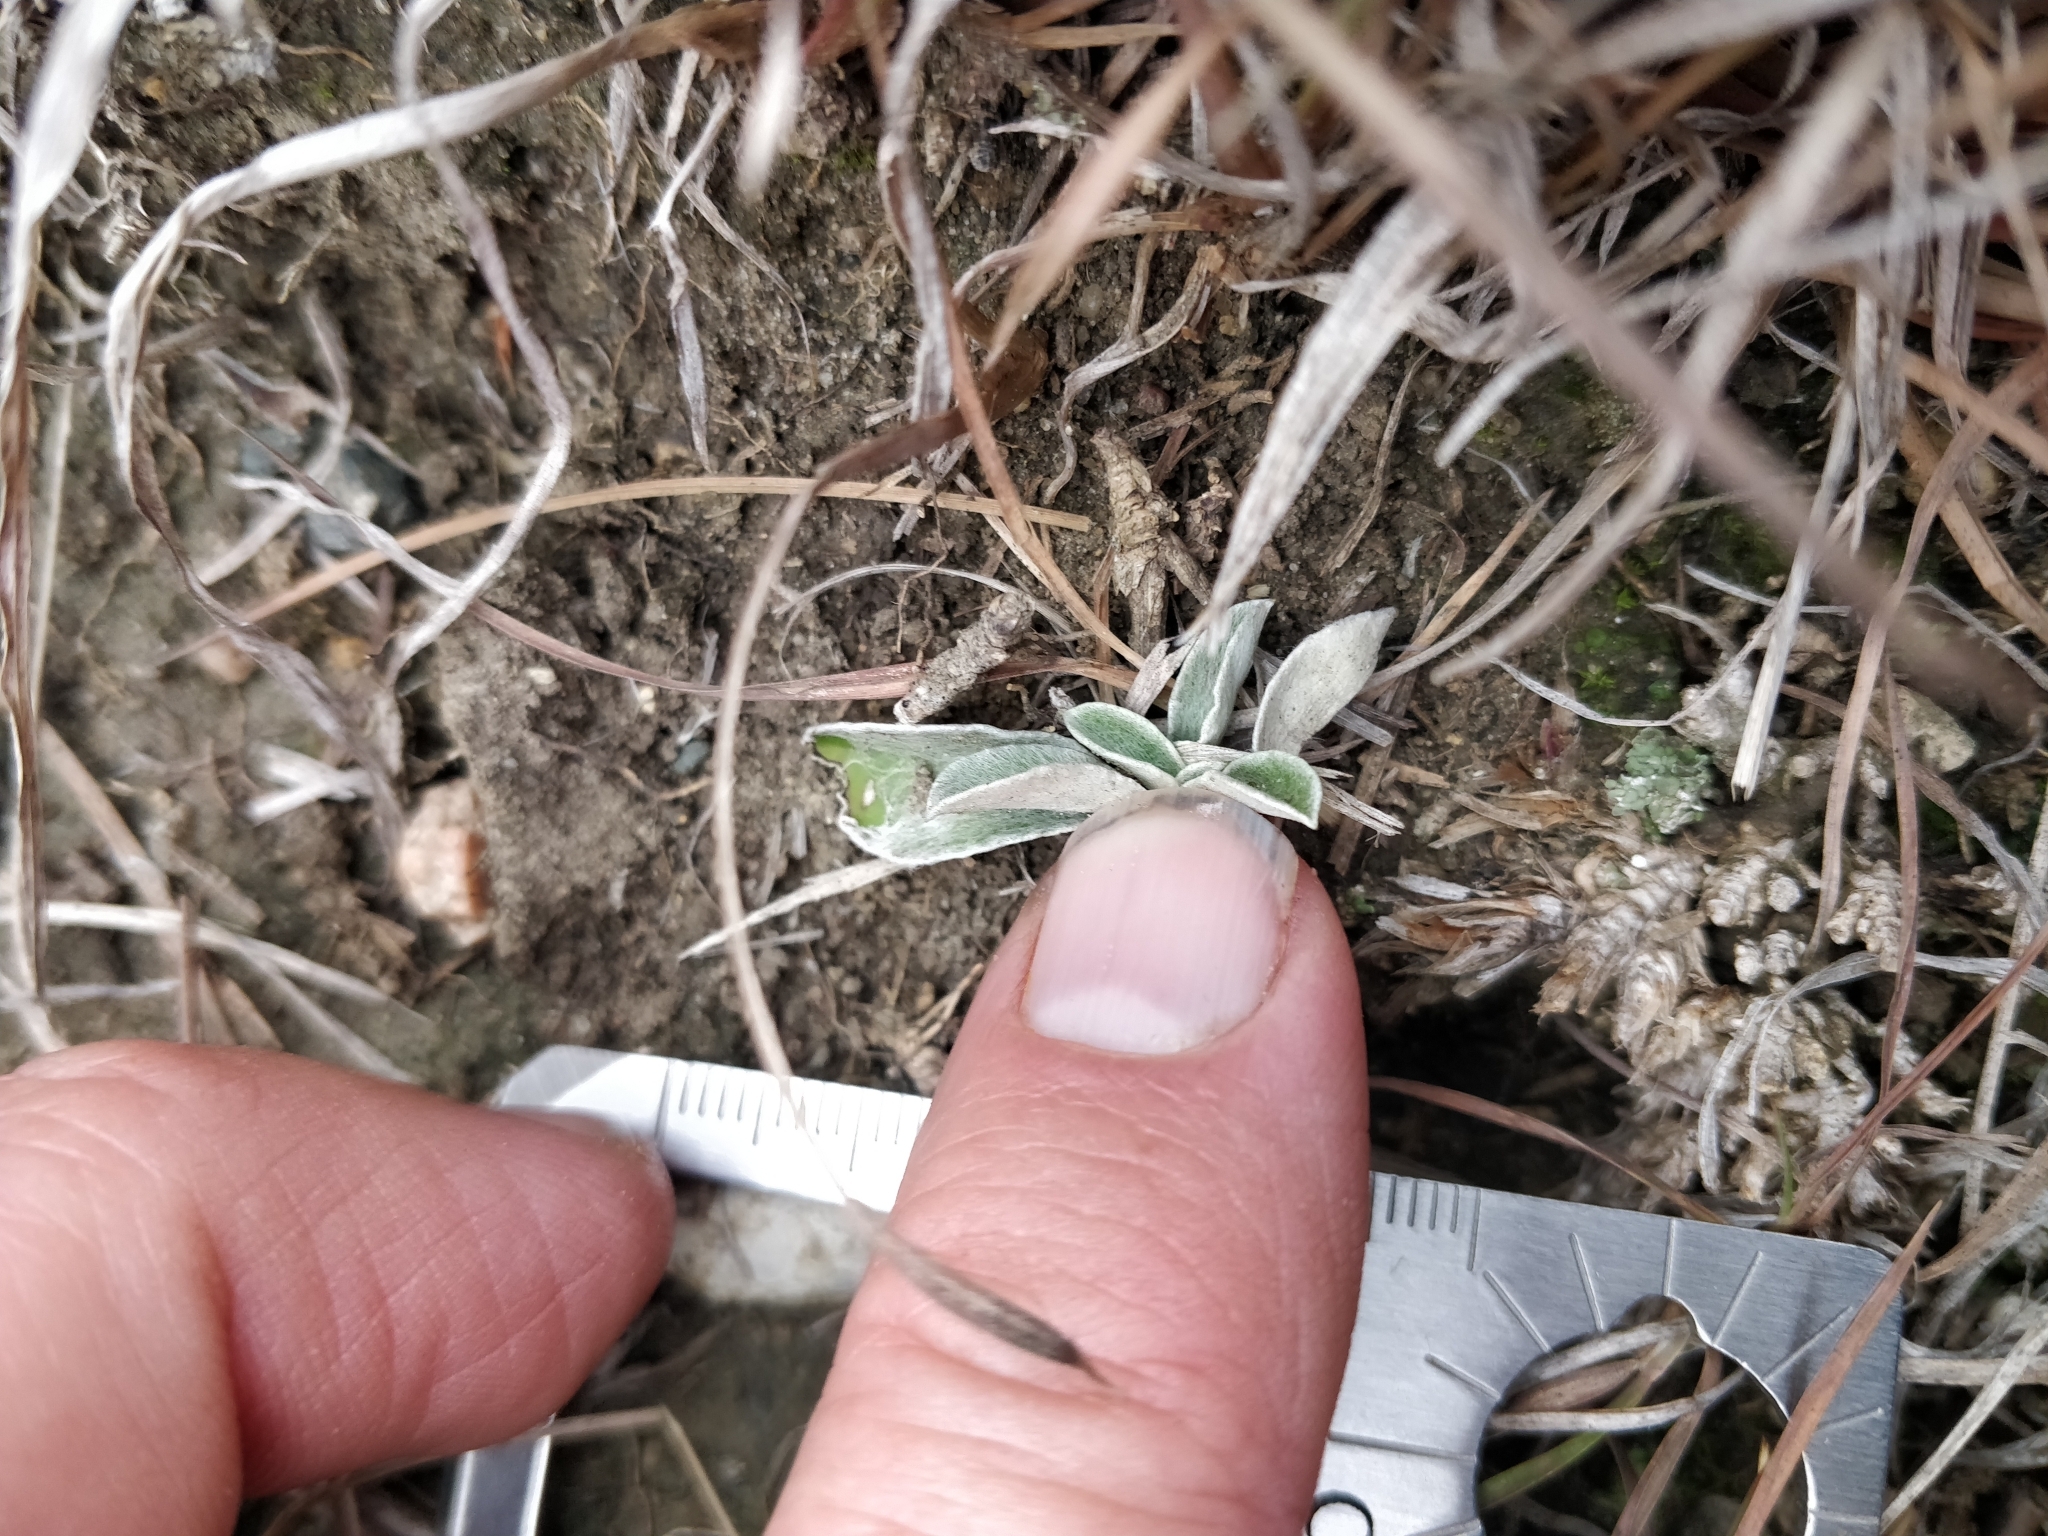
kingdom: Plantae
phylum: Tracheophyta
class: Magnoliopsida
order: Asterales
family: Asteraceae
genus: Antennaria
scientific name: Antennaria neglecta
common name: Field pussytoes
